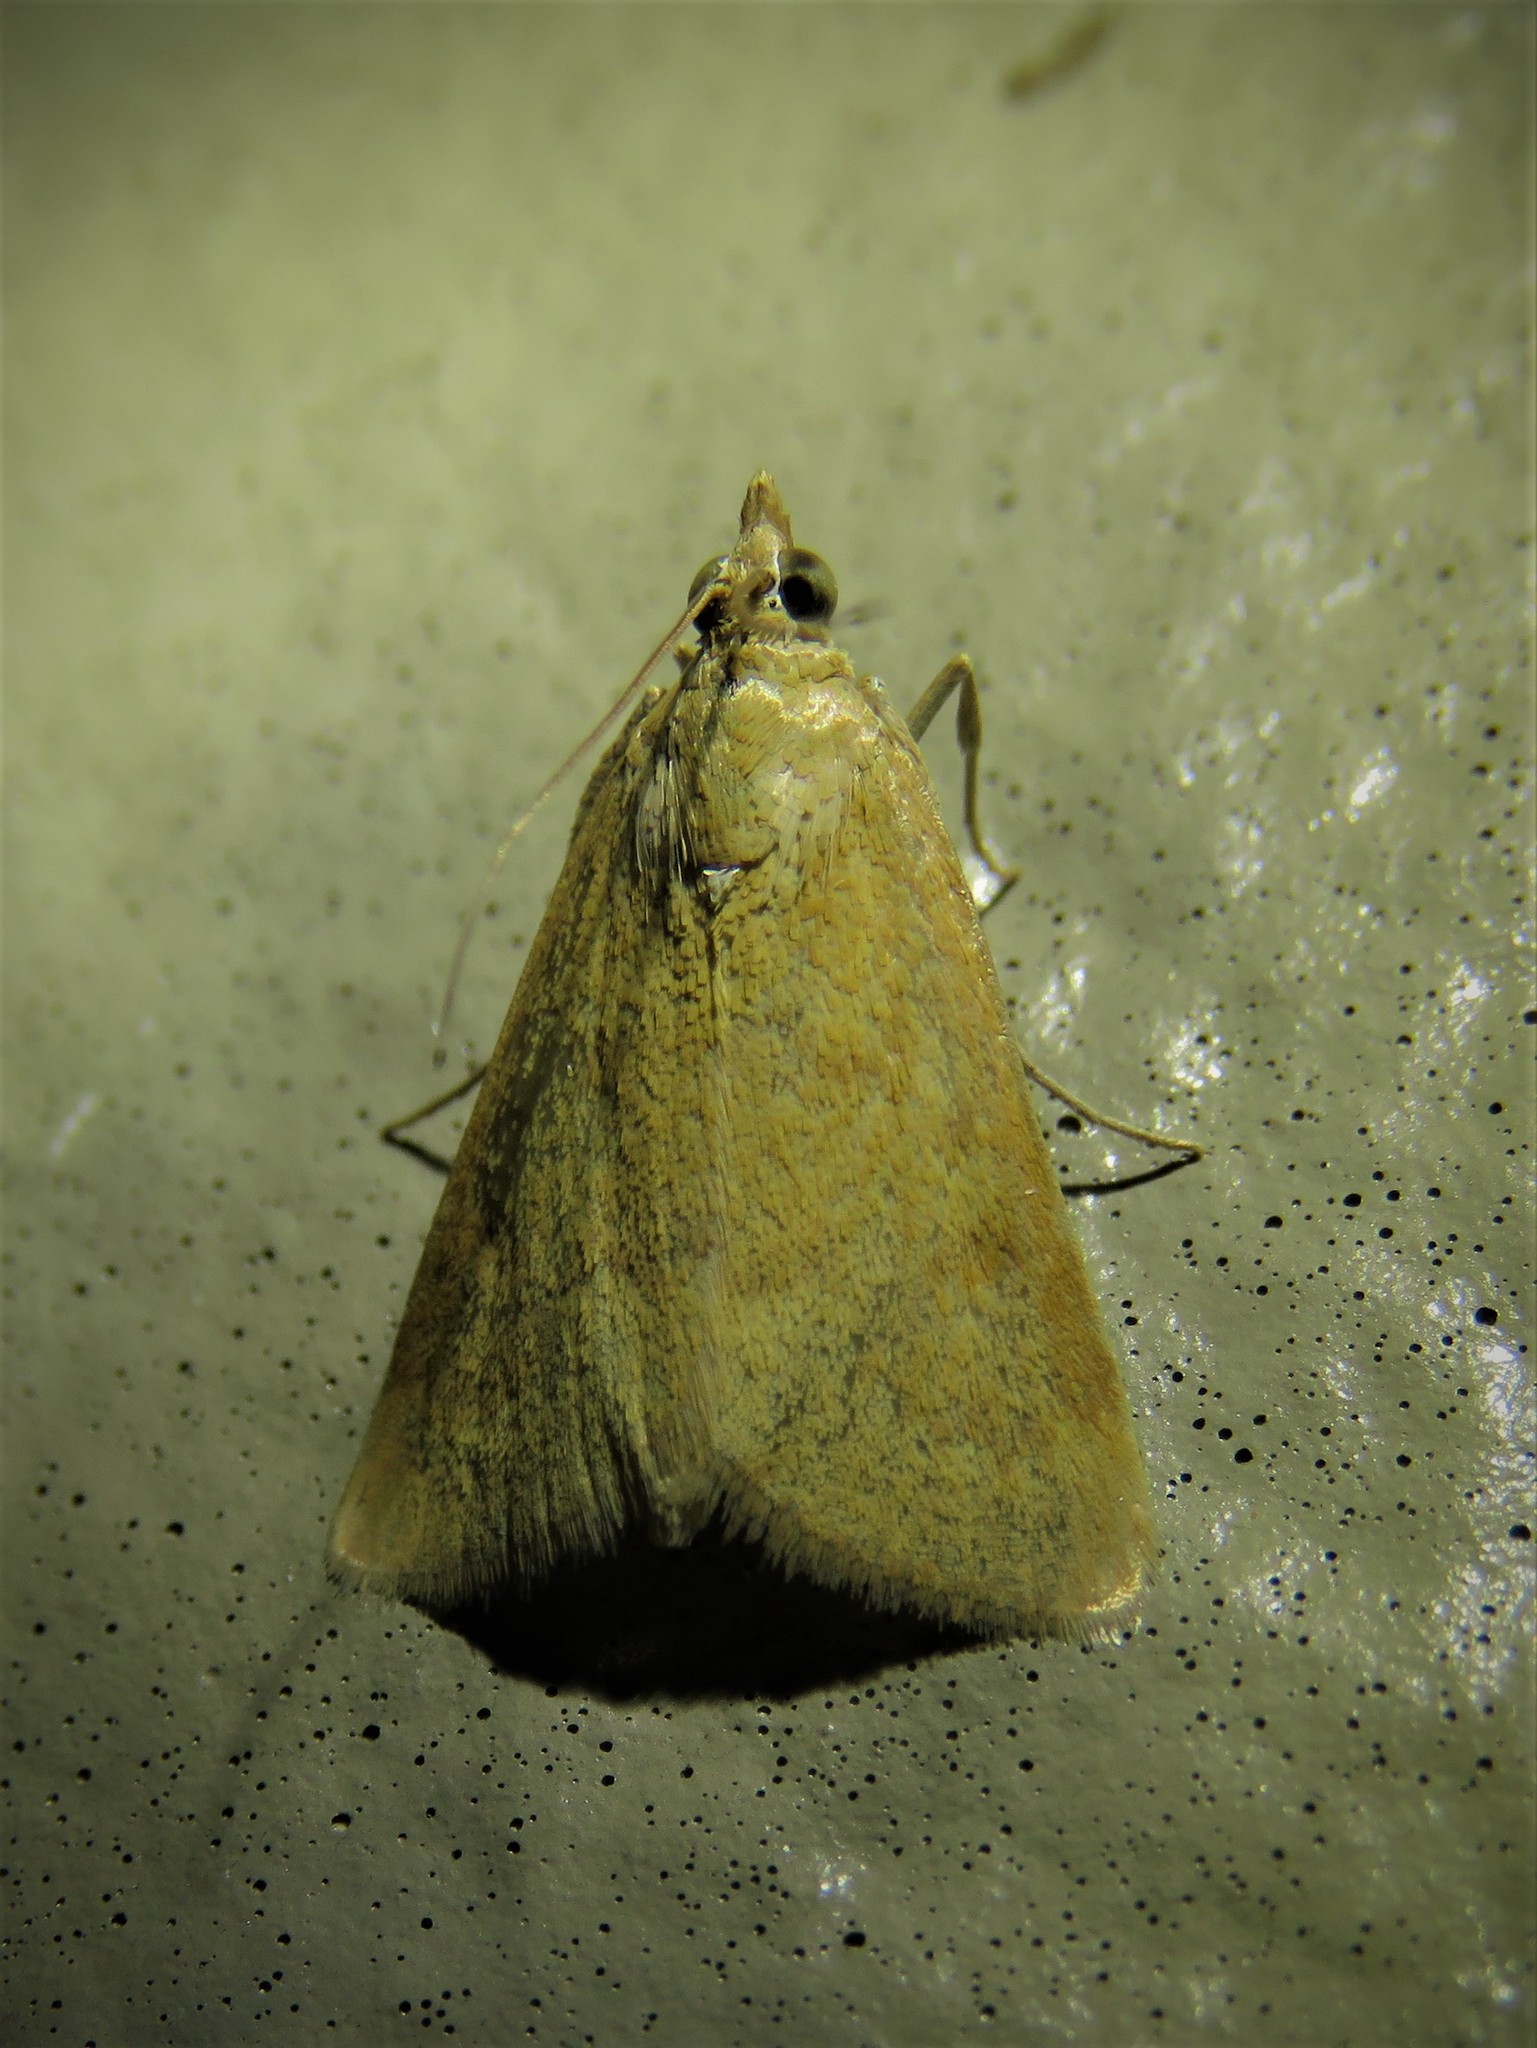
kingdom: Animalia
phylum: Arthropoda
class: Insecta
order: Lepidoptera
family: Crambidae
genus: Achyra
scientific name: Achyra rantalis
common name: Garden webworm
